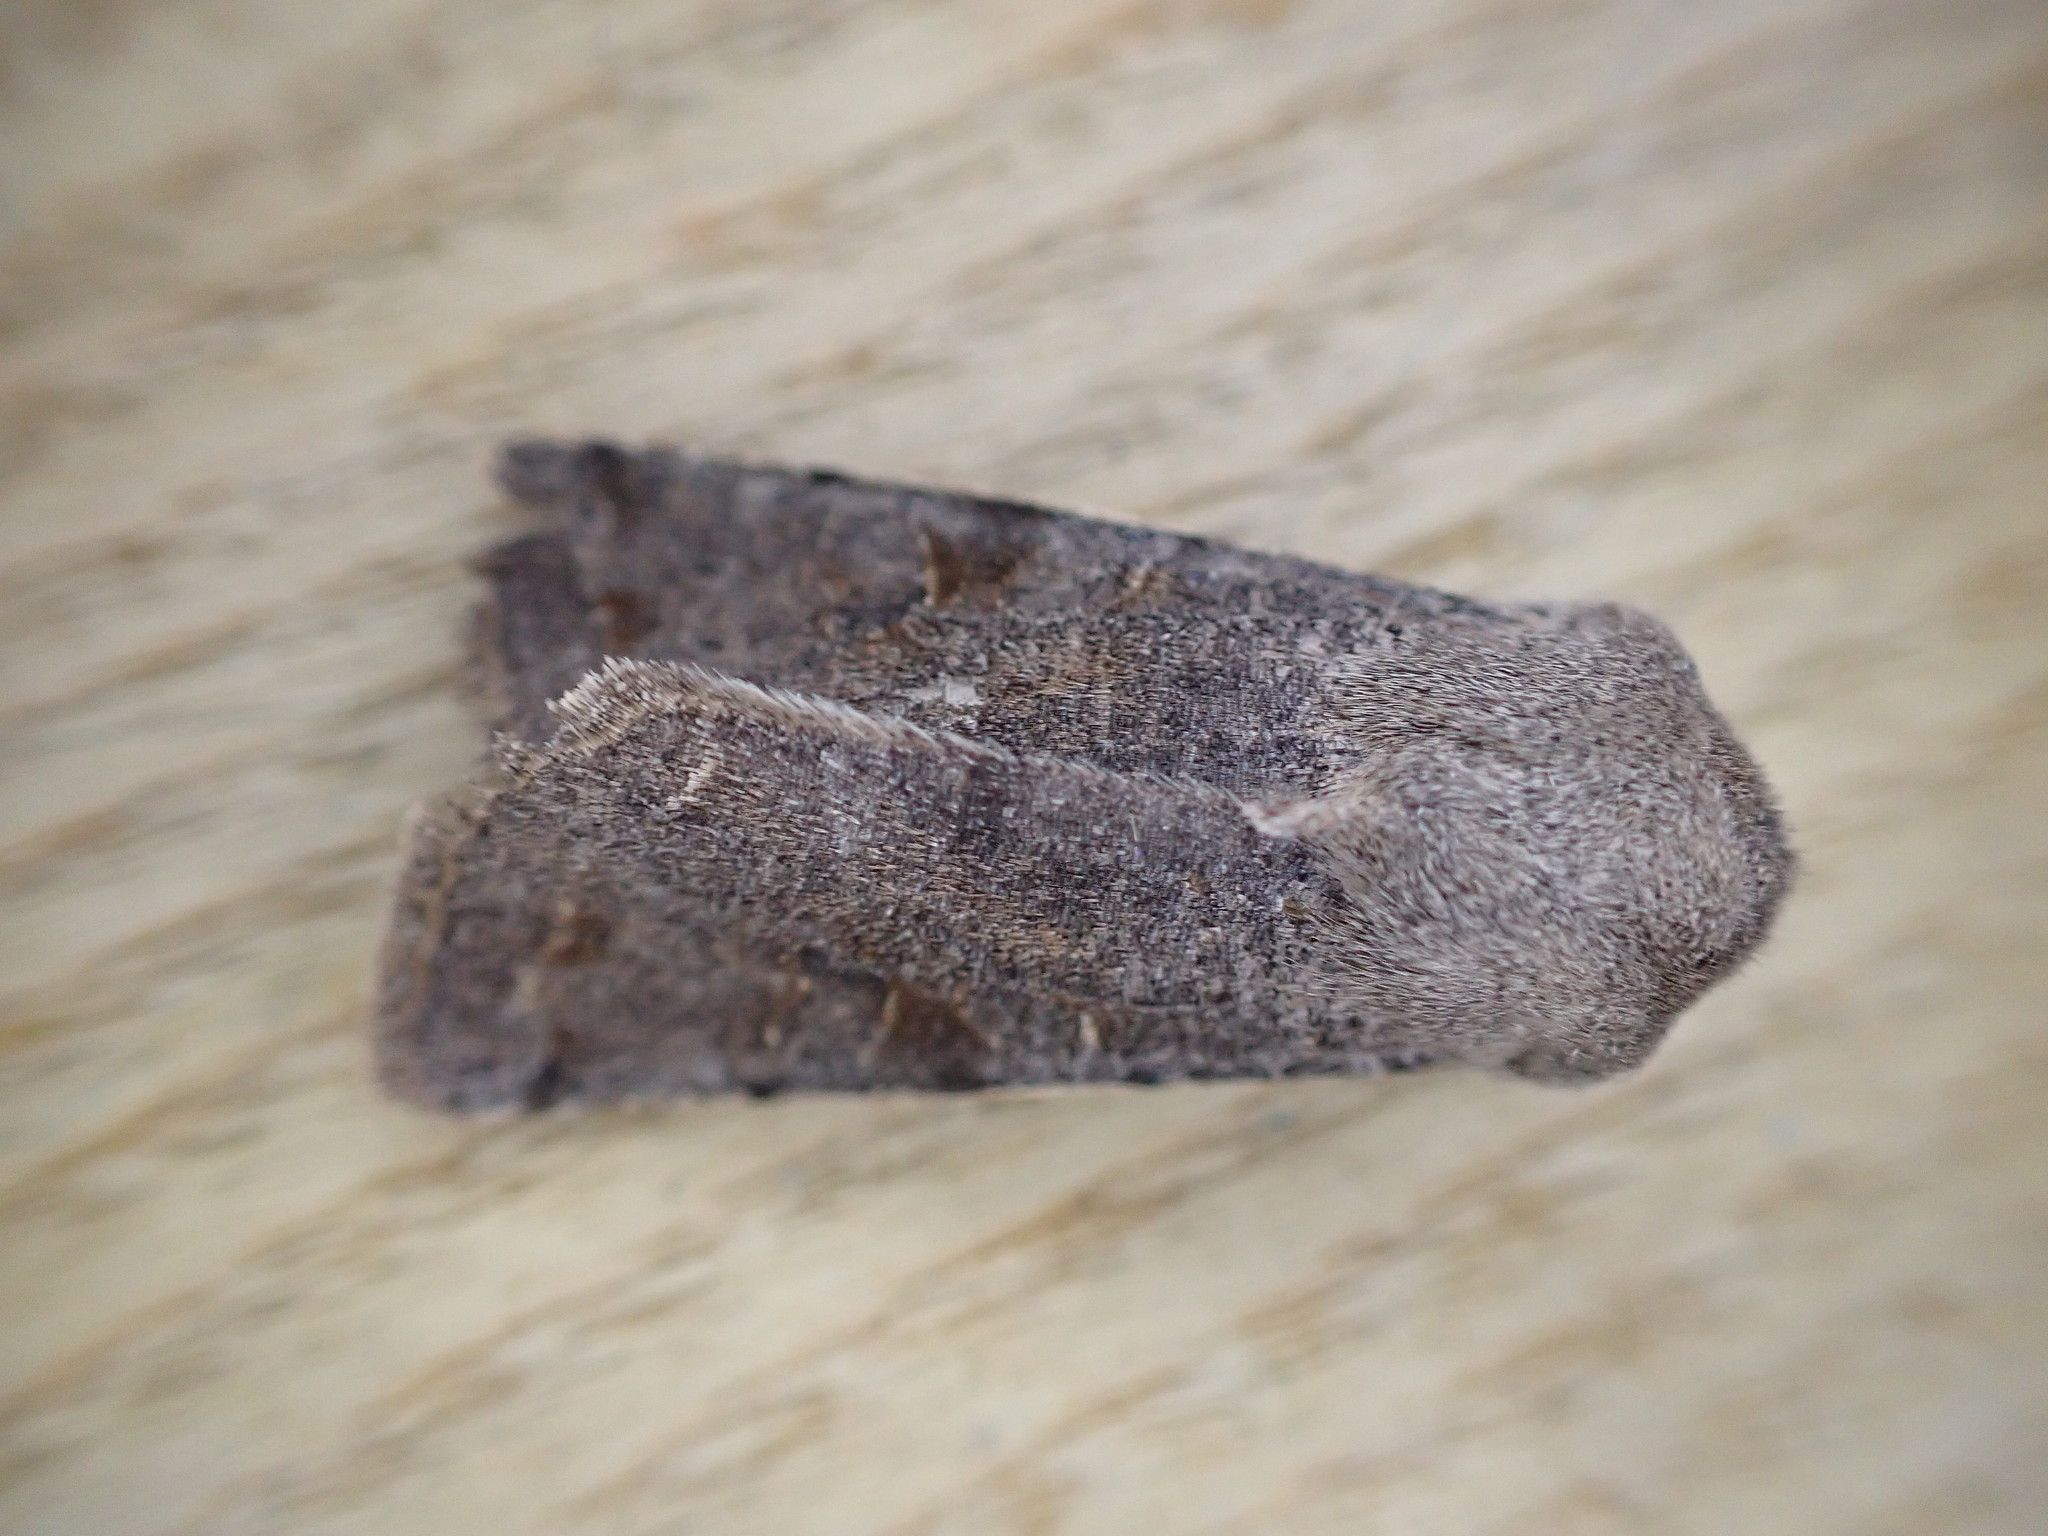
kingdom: Animalia
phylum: Arthropoda
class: Insecta
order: Lepidoptera
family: Noctuidae
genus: Orthosia
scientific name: Orthosia incerta
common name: Clouded drab
